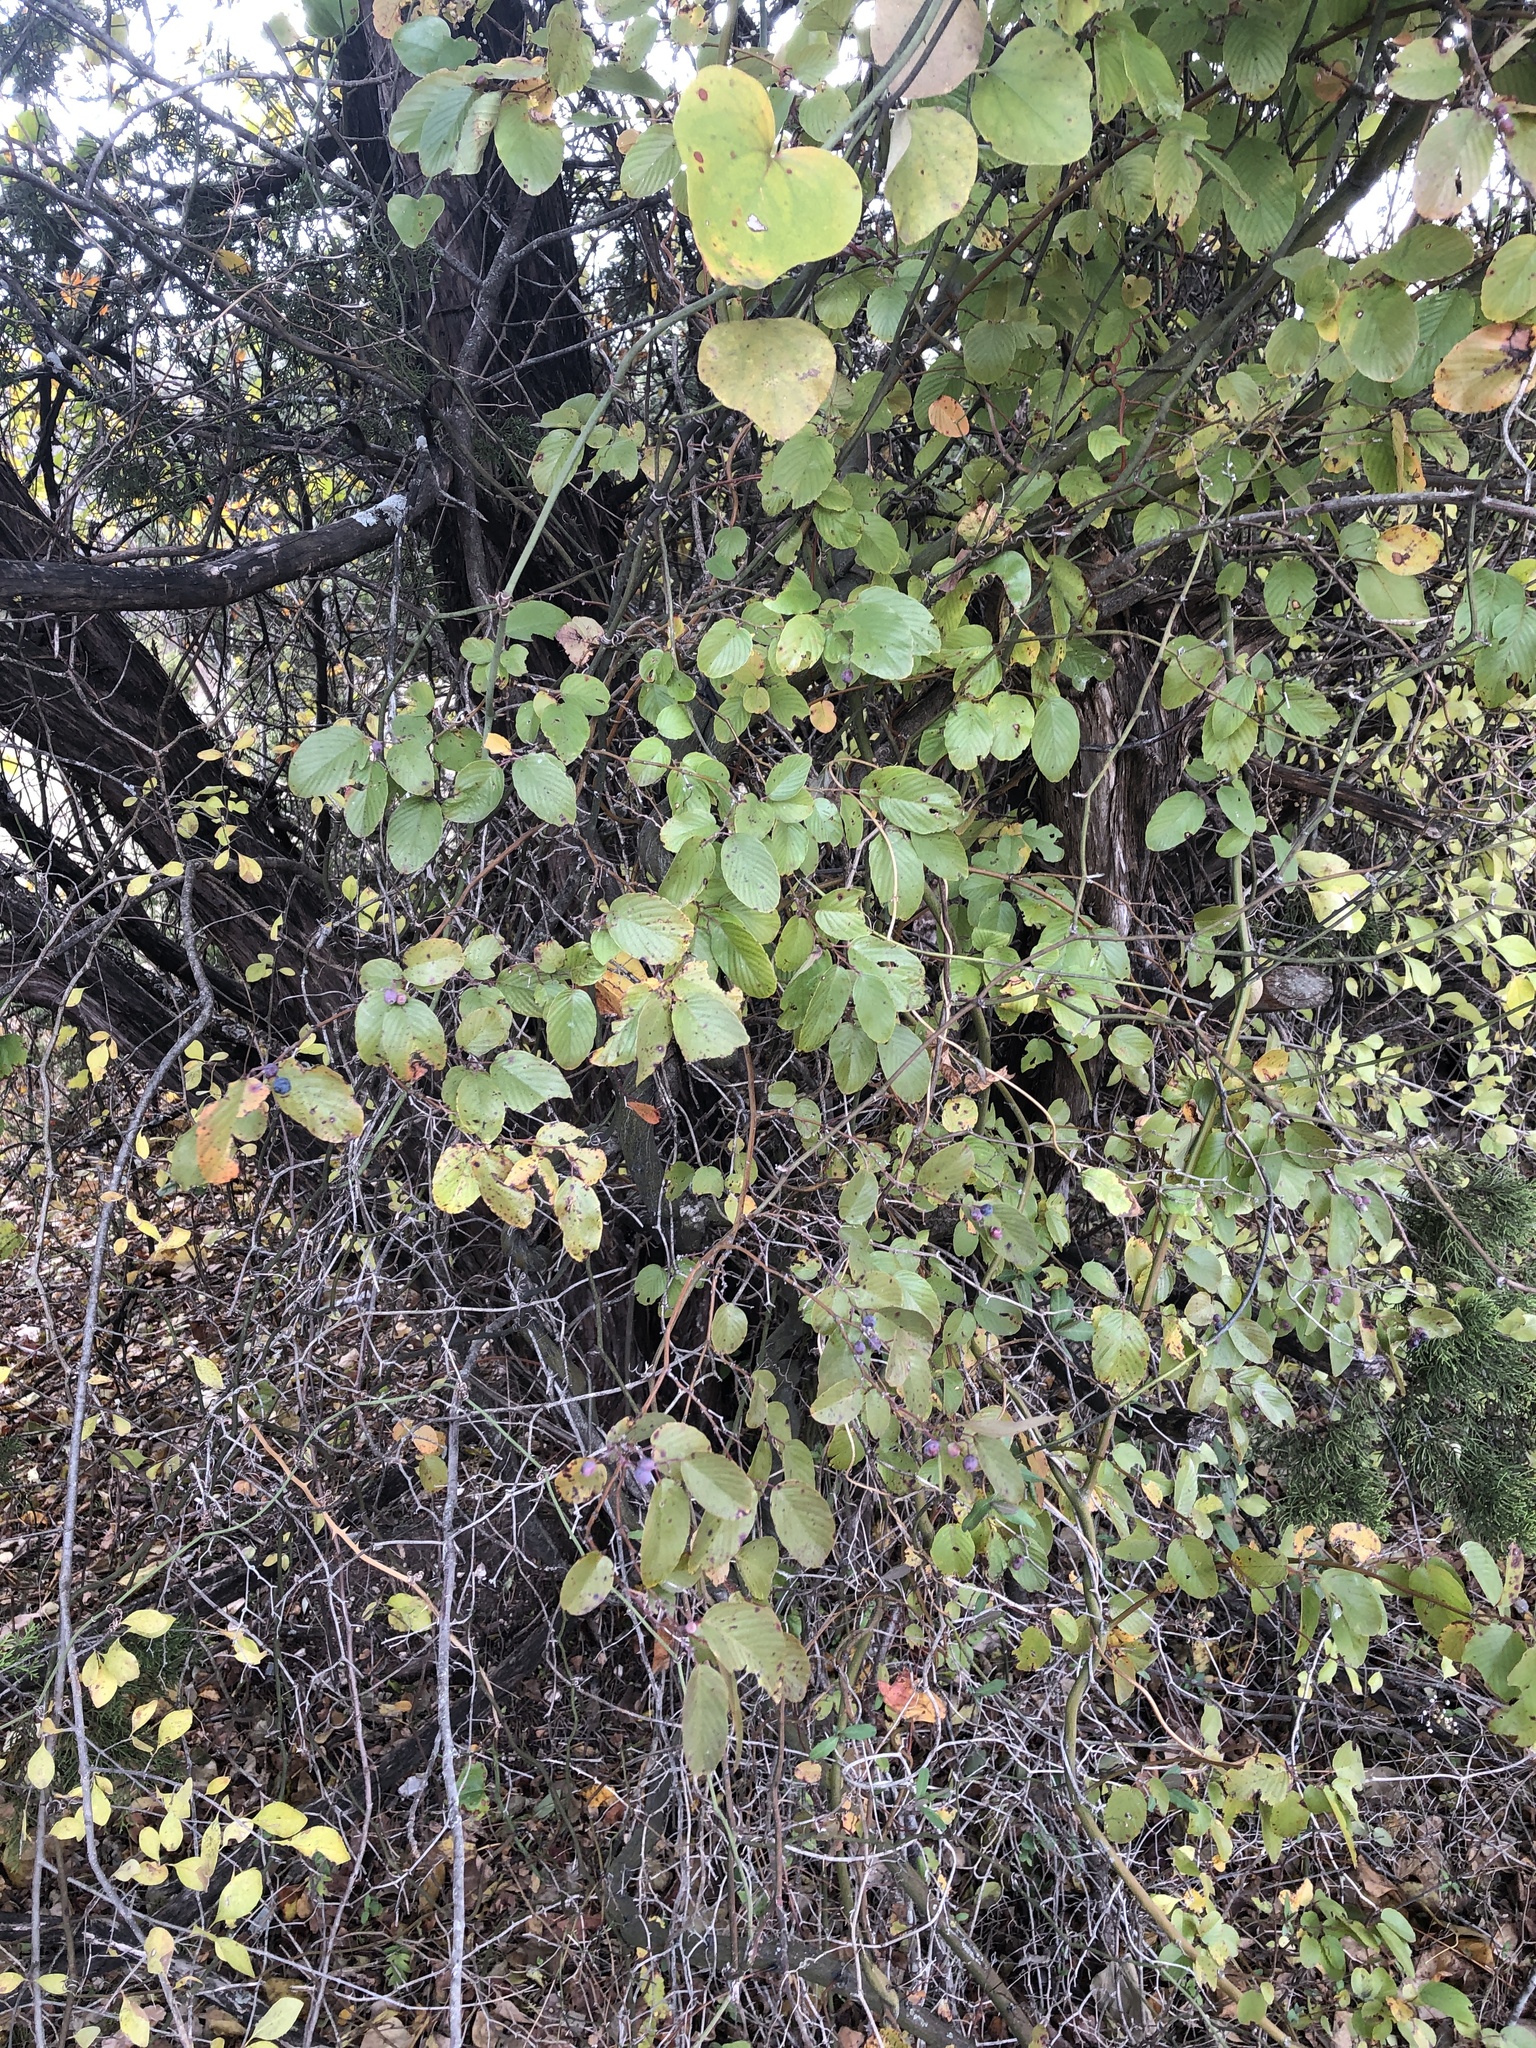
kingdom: Plantae
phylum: Tracheophyta
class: Magnoliopsida
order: Rosales
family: Rhamnaceae
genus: Berchemia
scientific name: Berchemia scandens
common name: Supplejack
